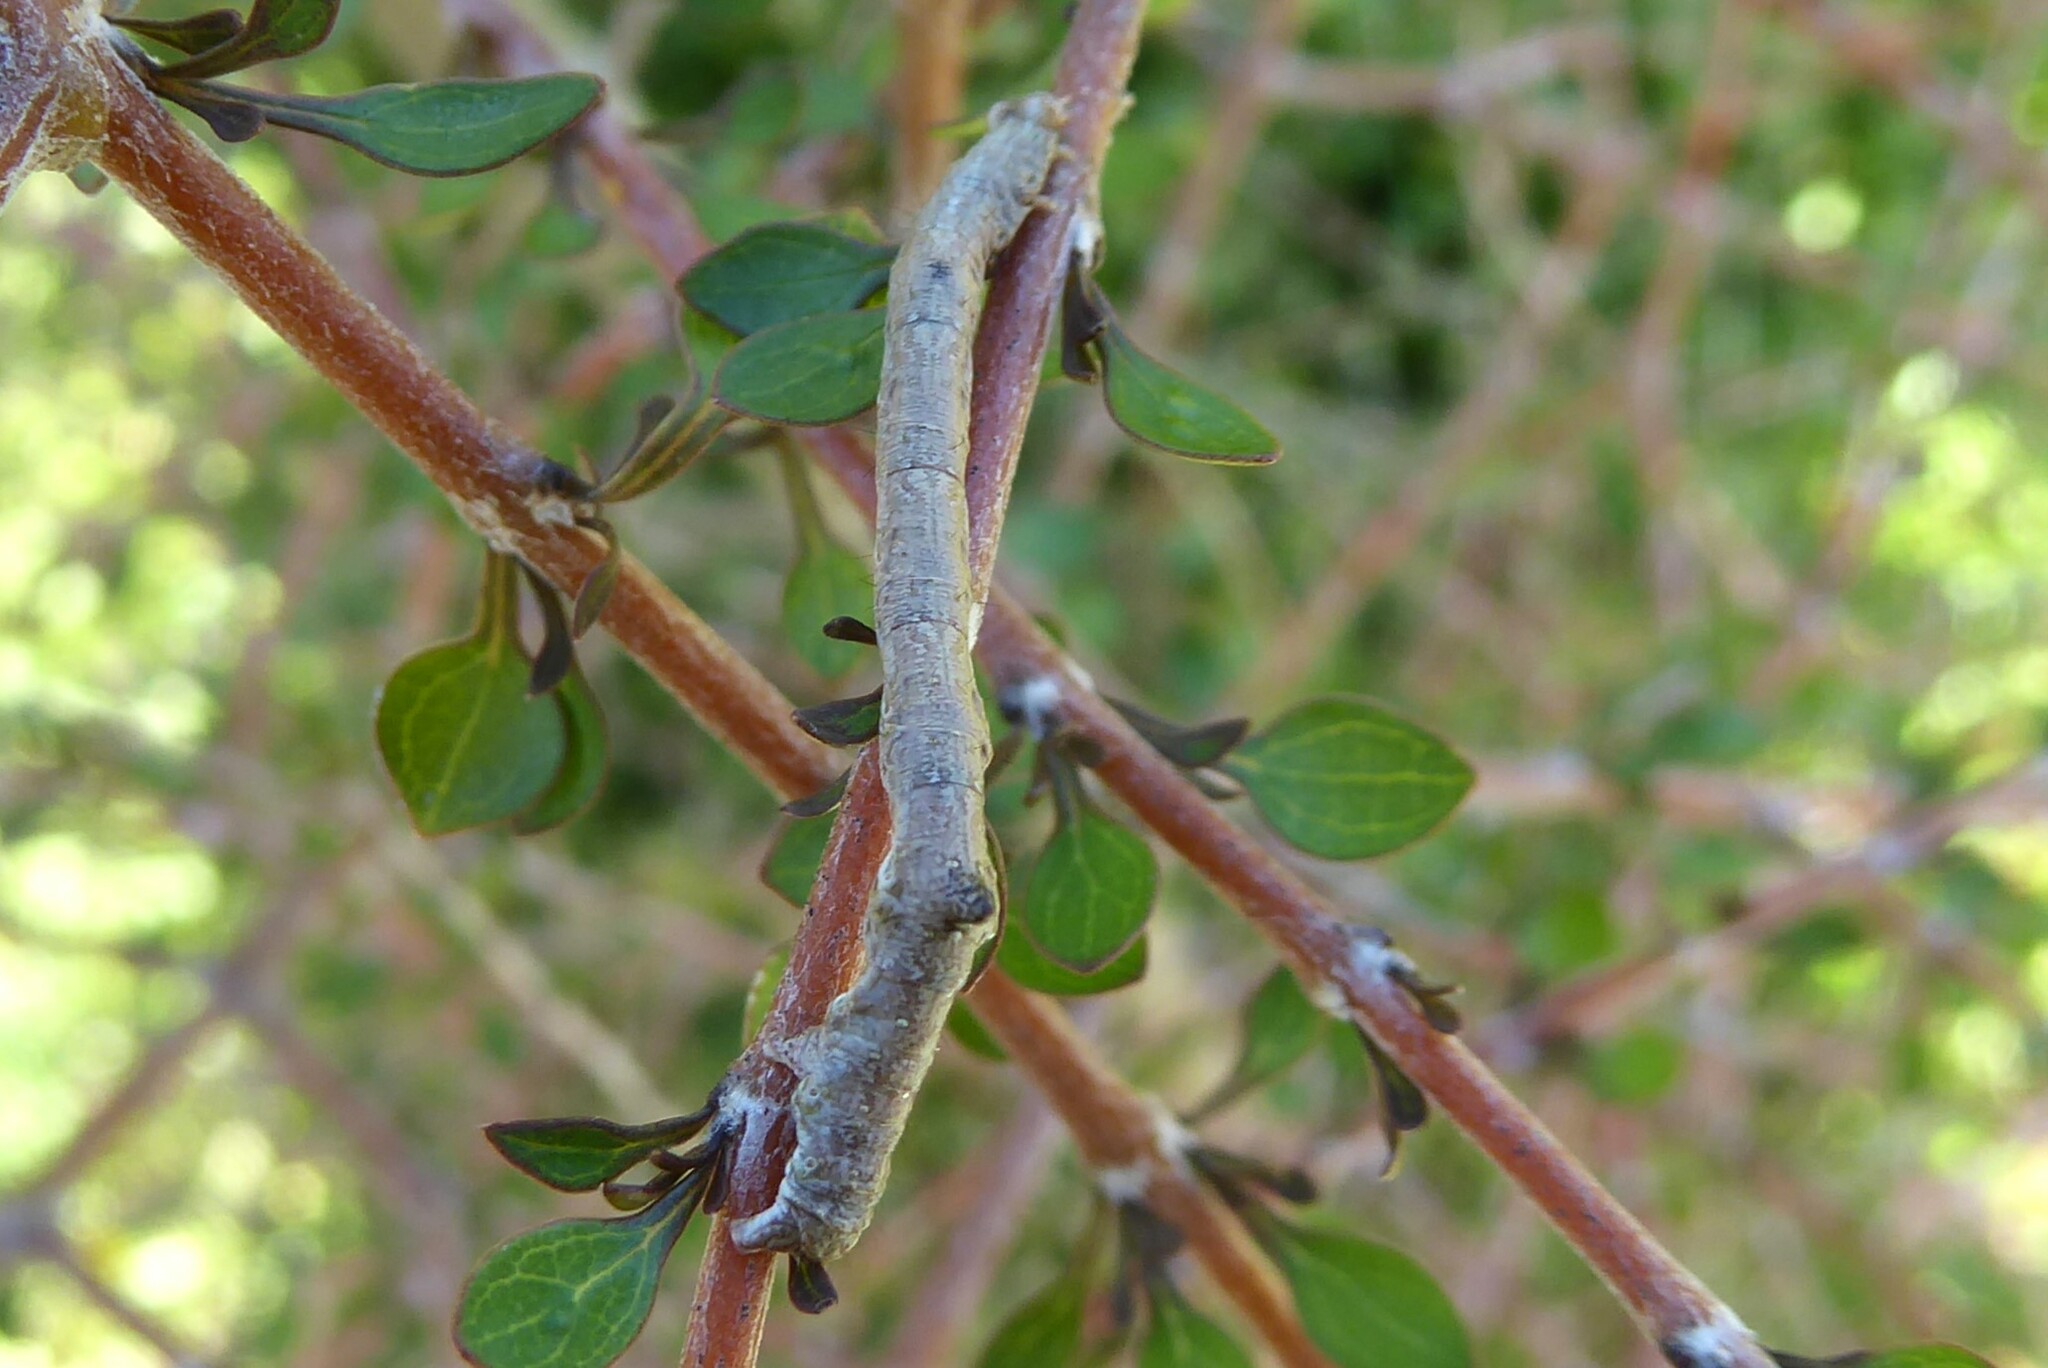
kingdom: Animalia
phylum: Arthropoda
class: Insecta
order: Lepidoptera
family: Geometridae
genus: Austrocidaria
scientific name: Austrocidaria bipartita
